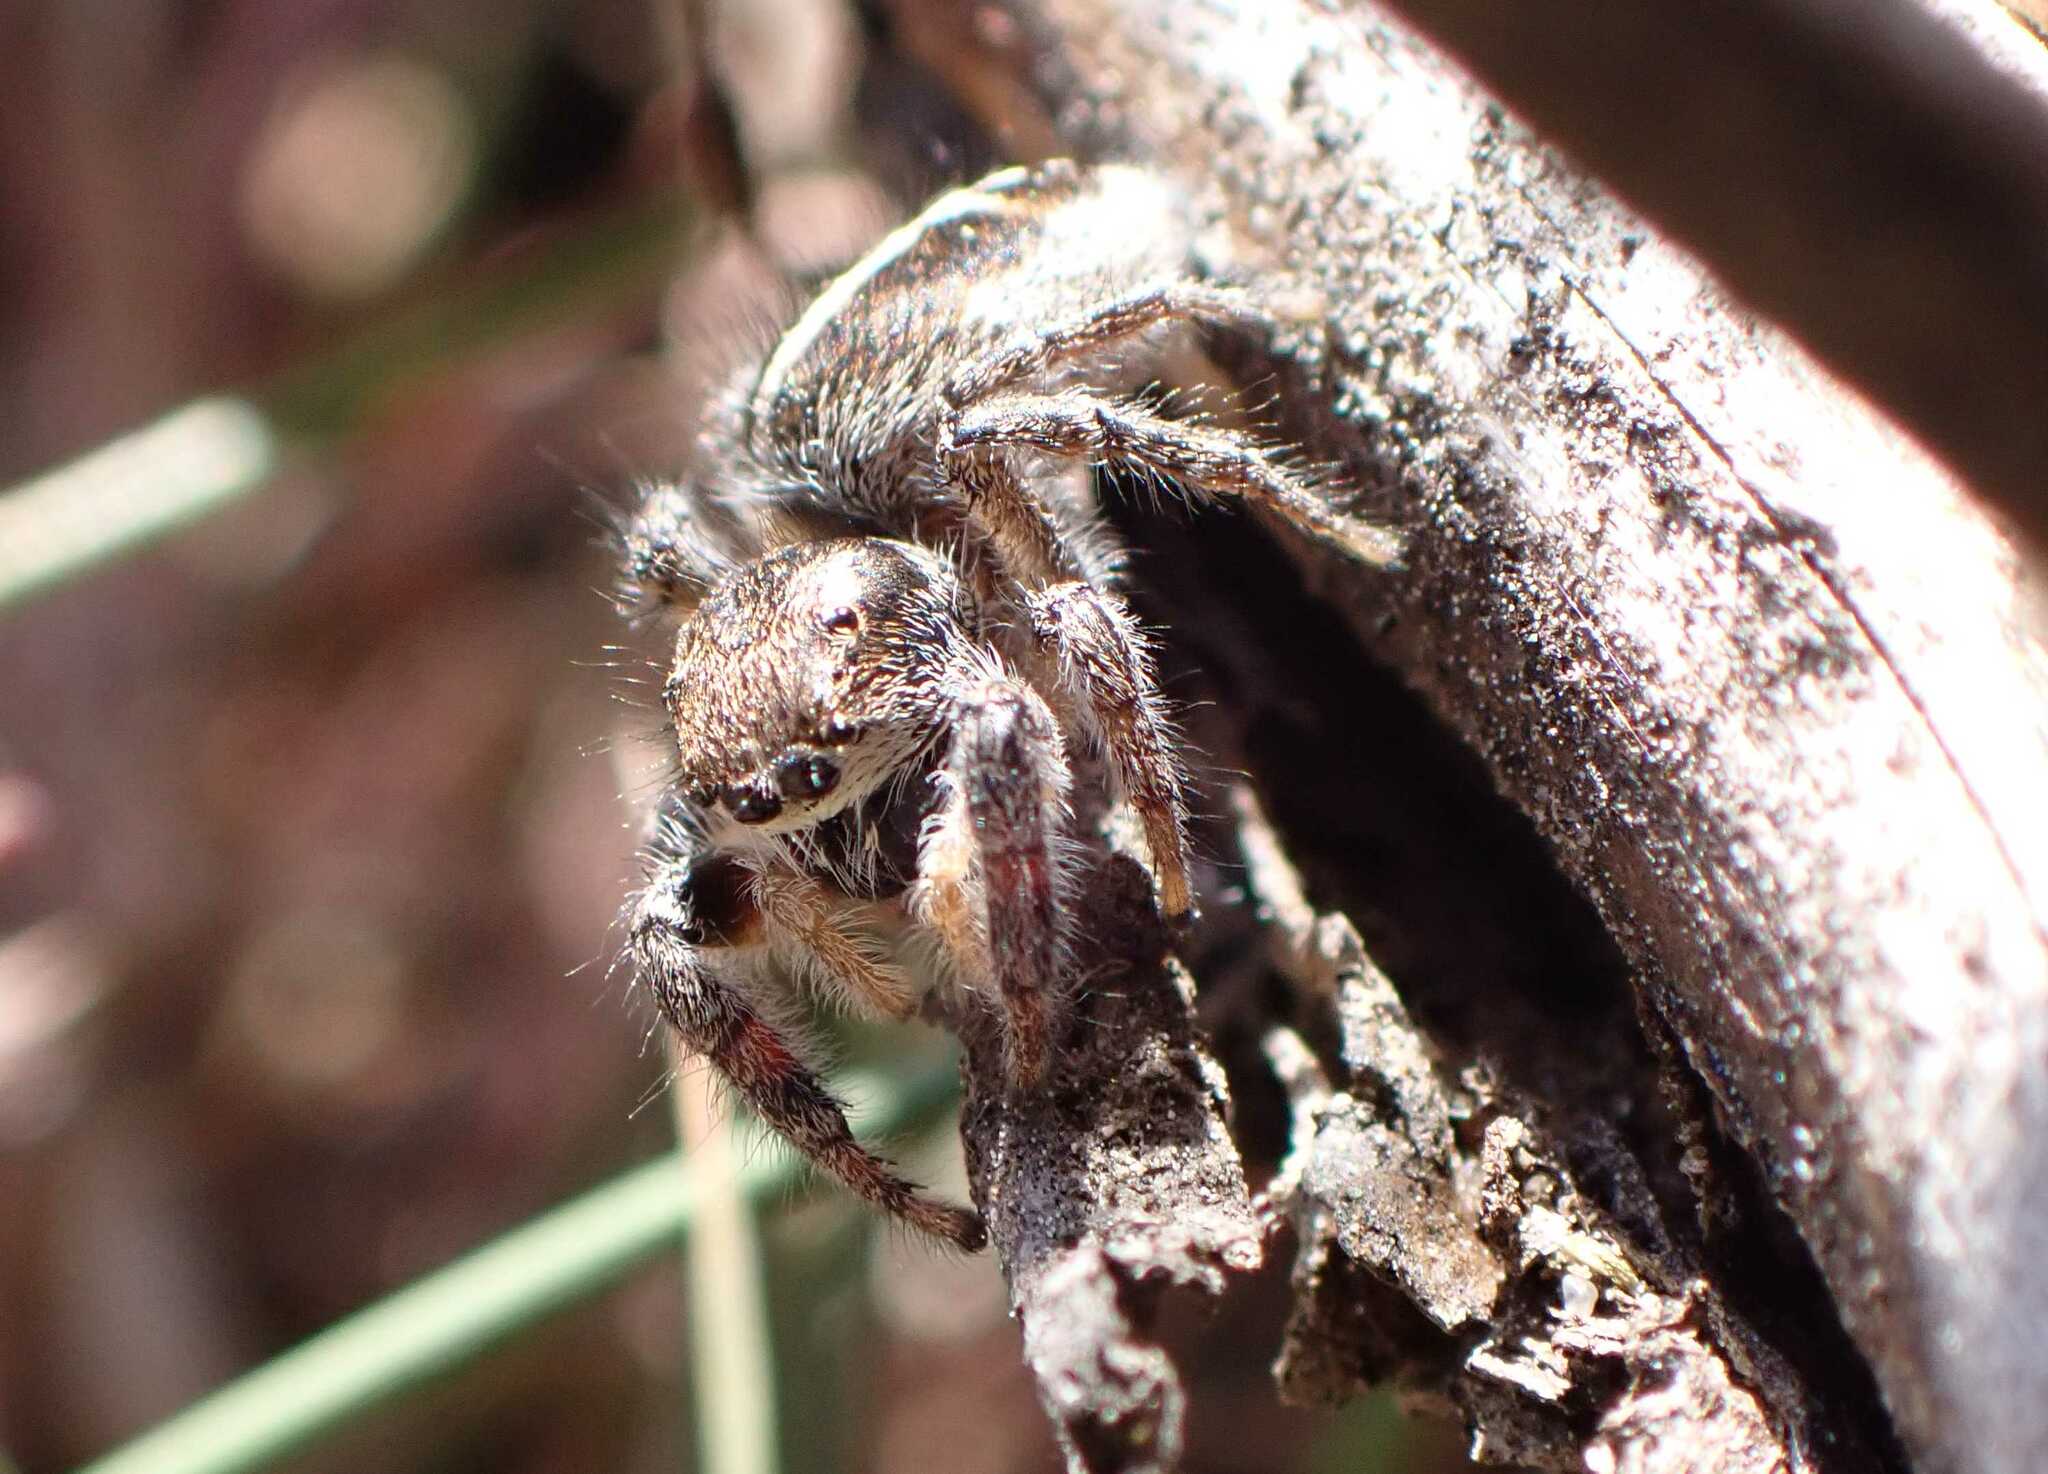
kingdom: Animalia
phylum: Arthropoda
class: Arachnida
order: Araneae
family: Salticidae
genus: Pellenes
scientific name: Pellenes tripunctatus
